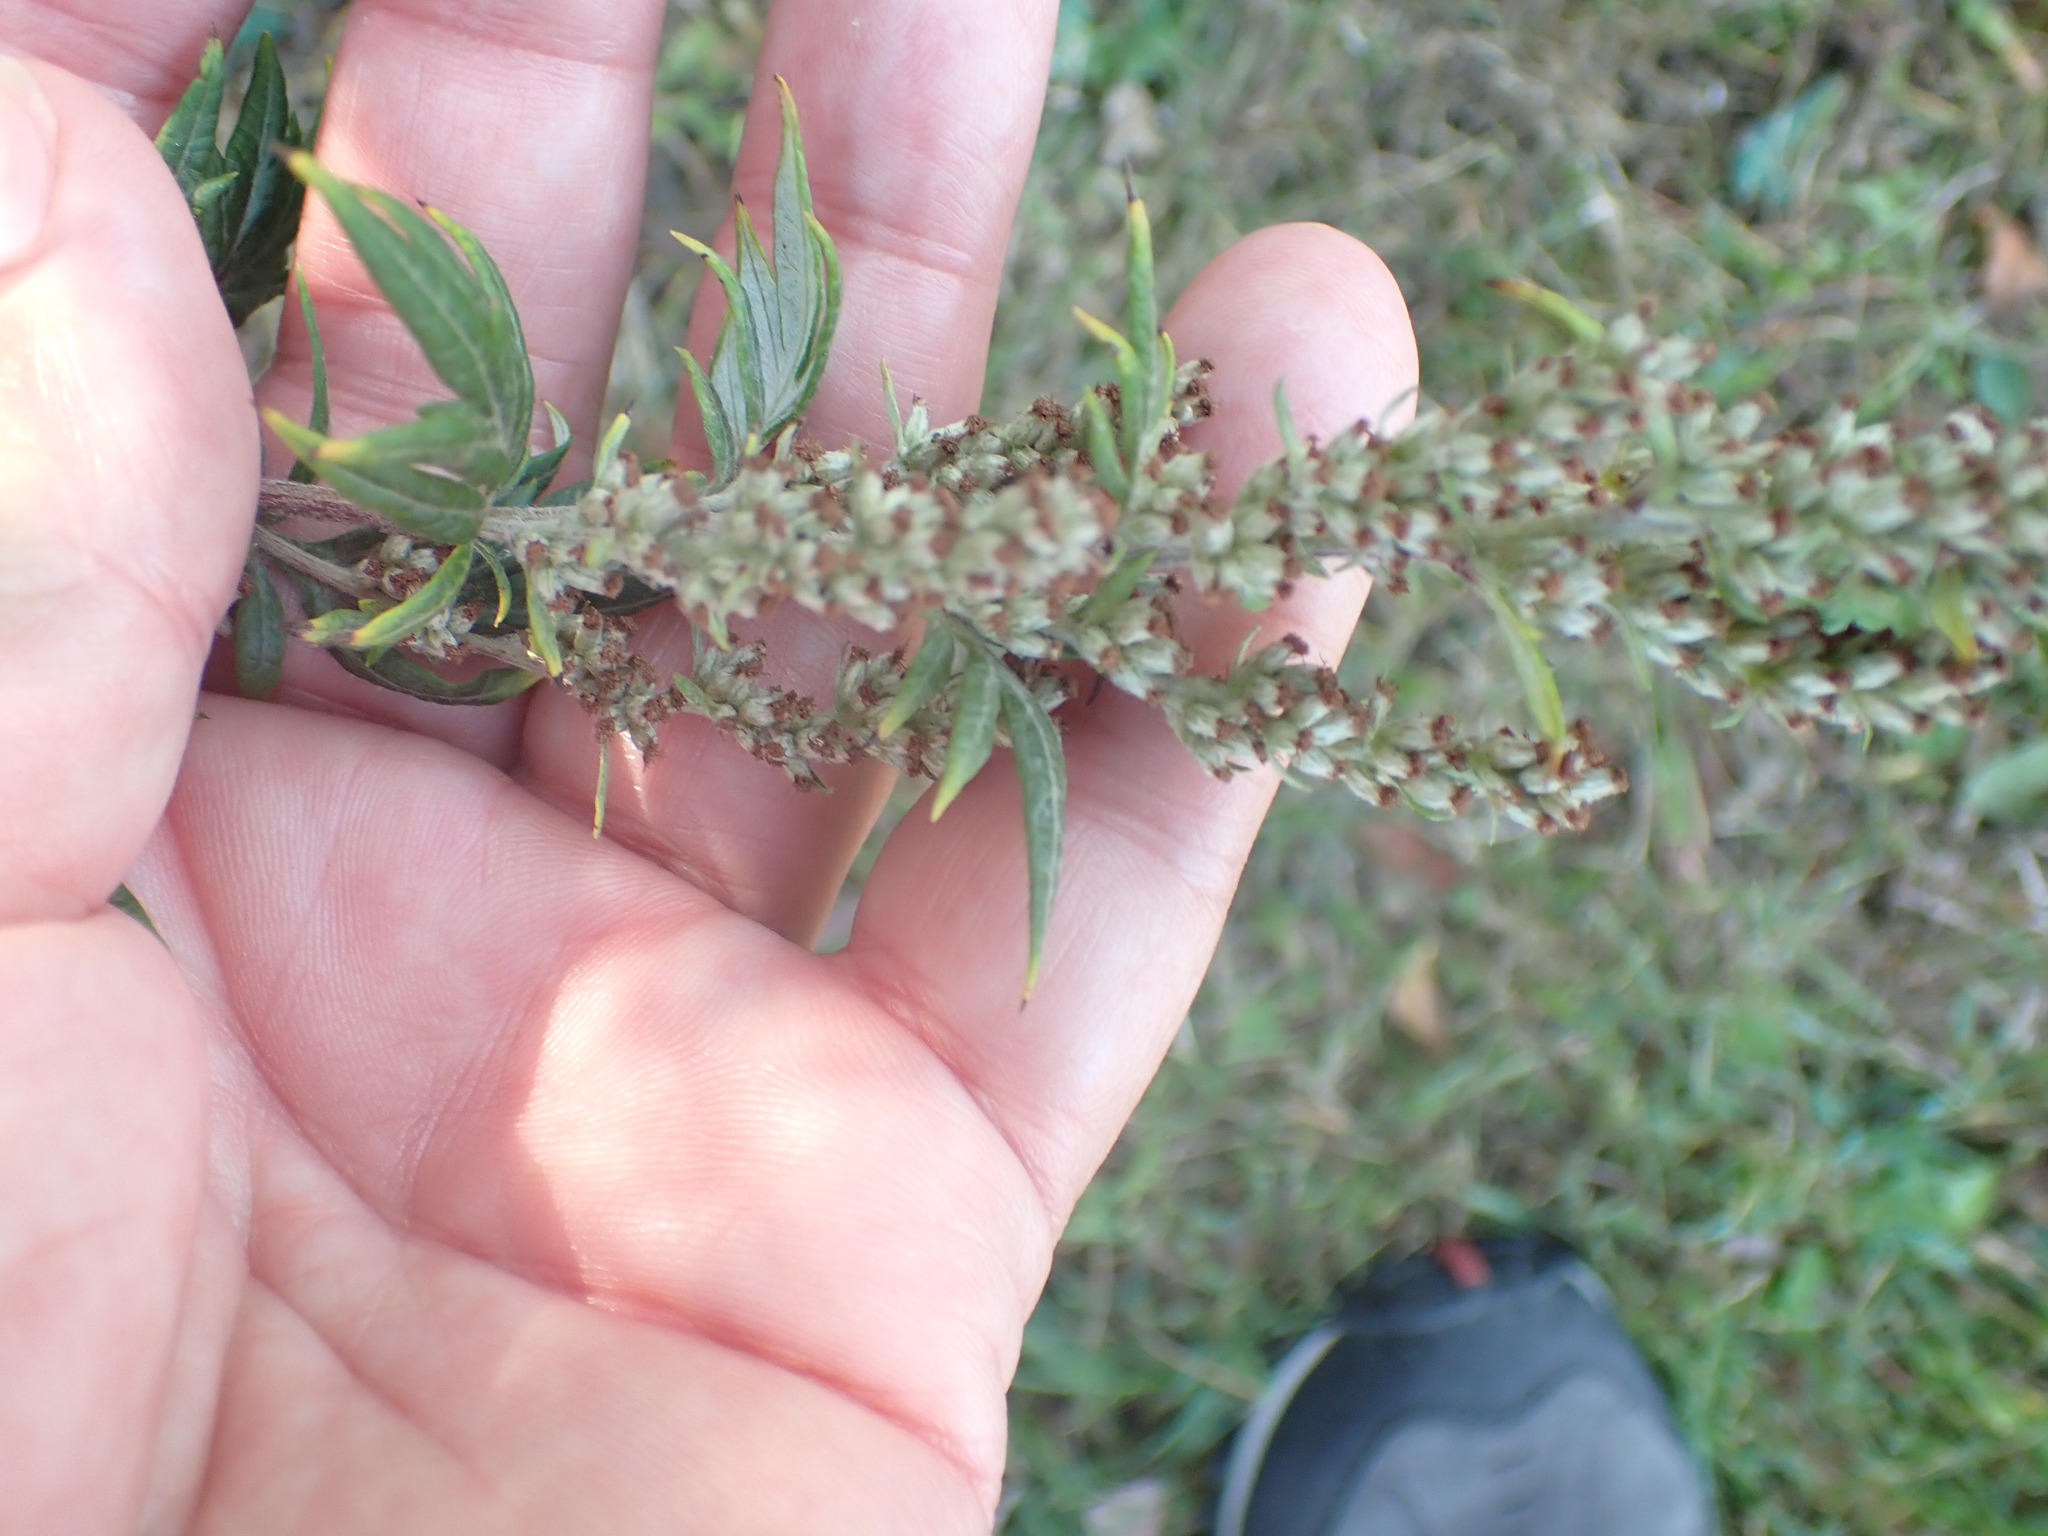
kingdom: Plantae
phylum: Tracheophyta
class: Magnoliopsida
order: Asterales
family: Asteraceae
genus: Artemisia
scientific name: Artemisia vulgaris
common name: Mugwort
